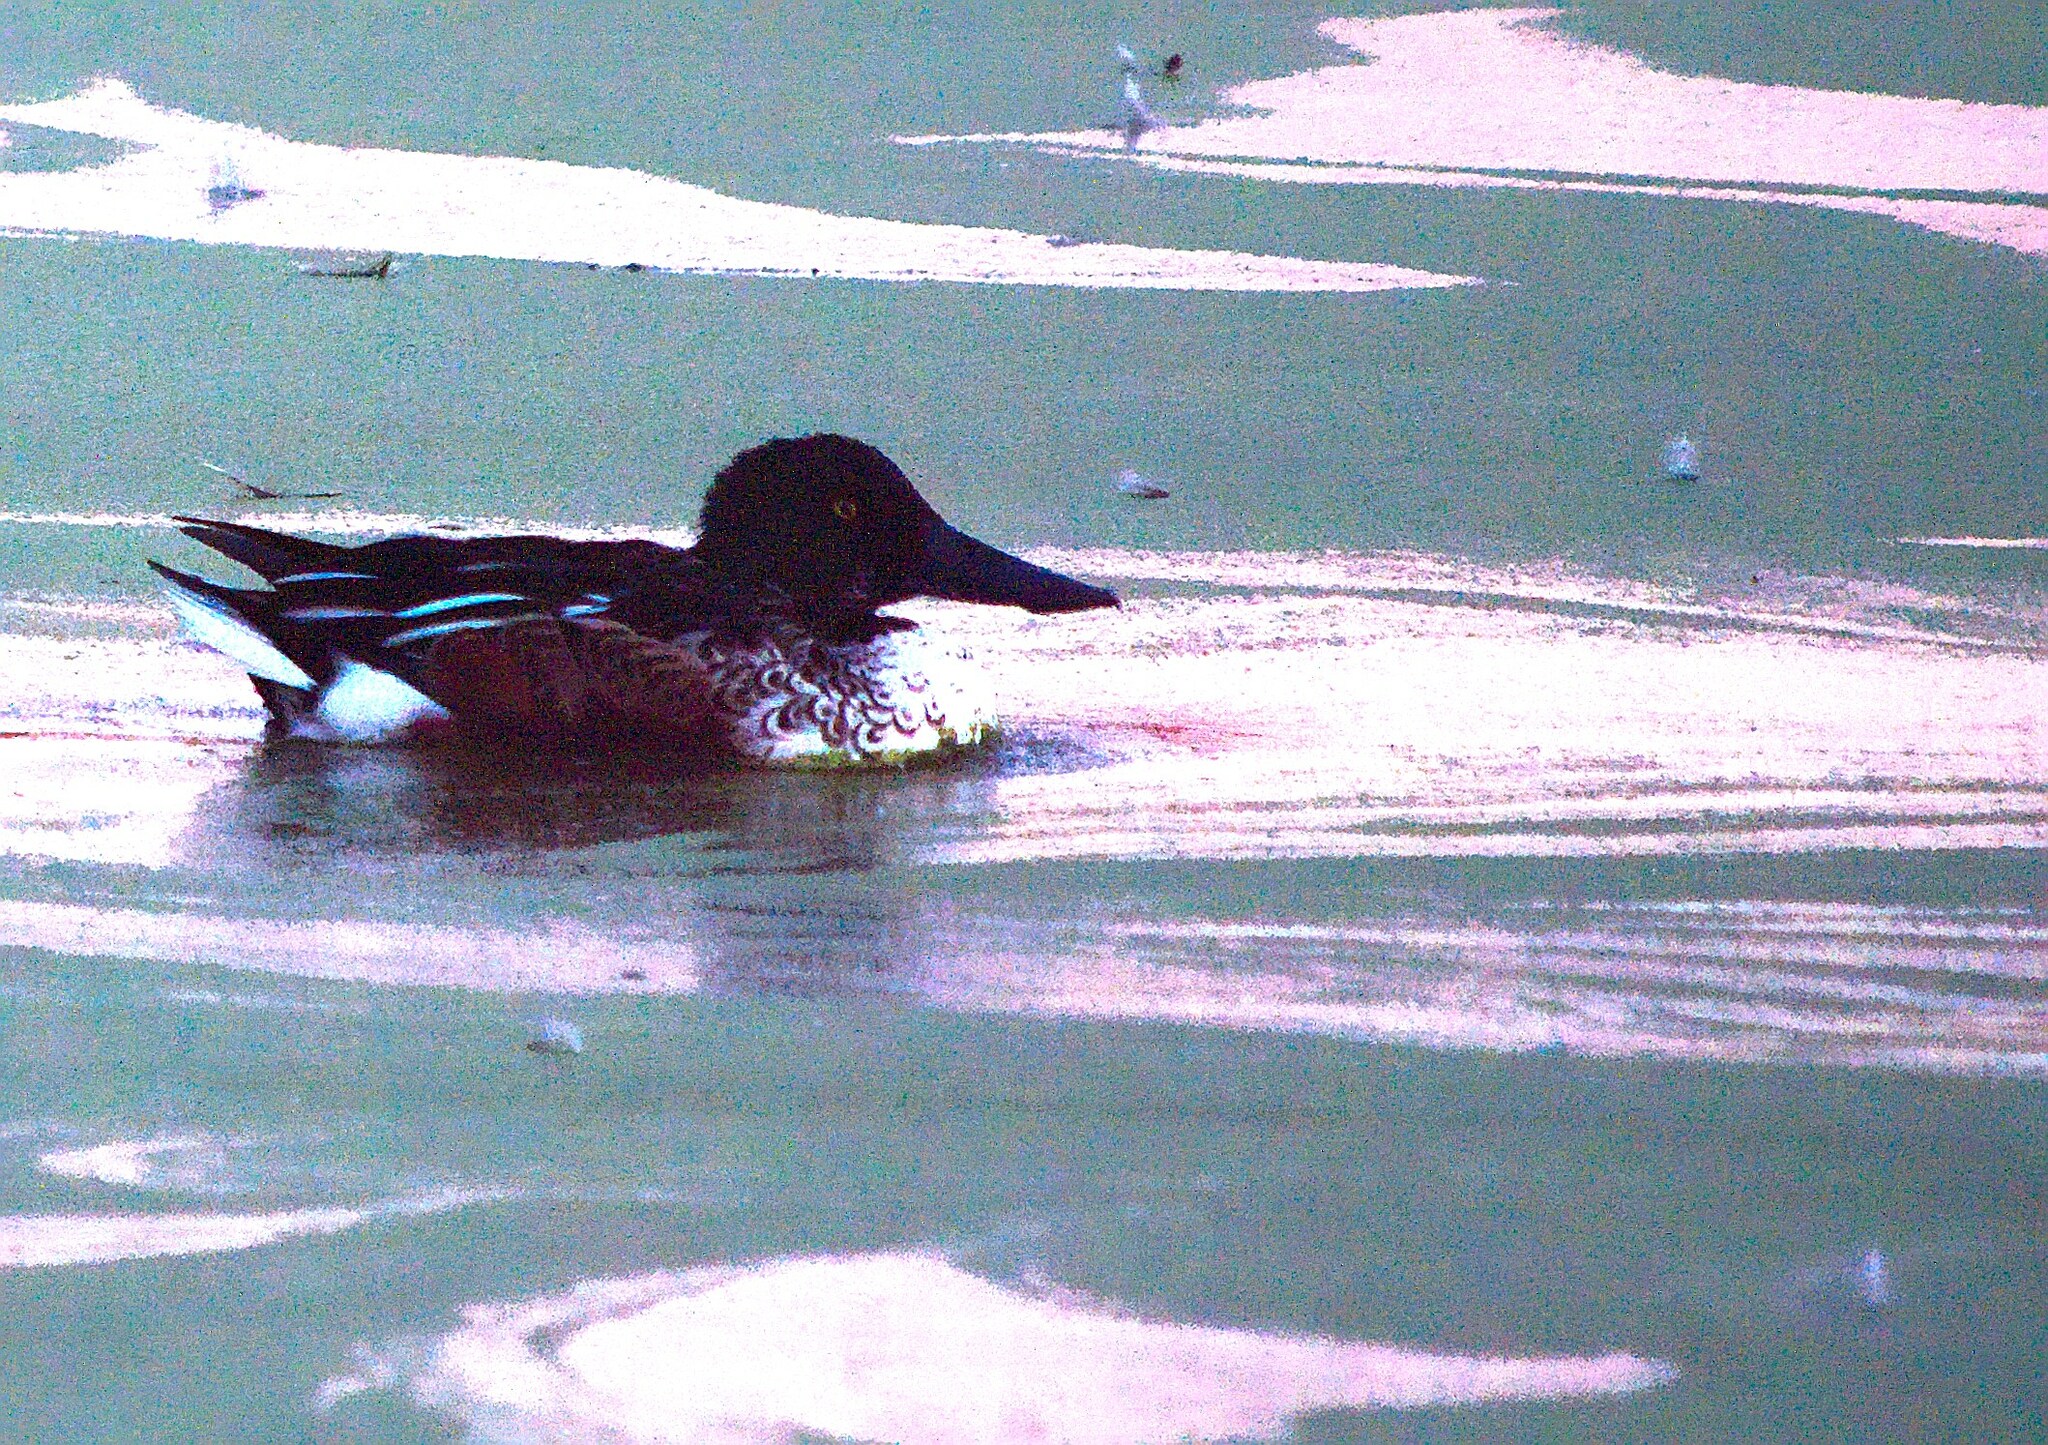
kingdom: Animalia
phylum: Chordata
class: Aves
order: Anseriformes
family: Anatidae
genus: Spatula
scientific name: Spatula clypeata
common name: Northern shoveler
